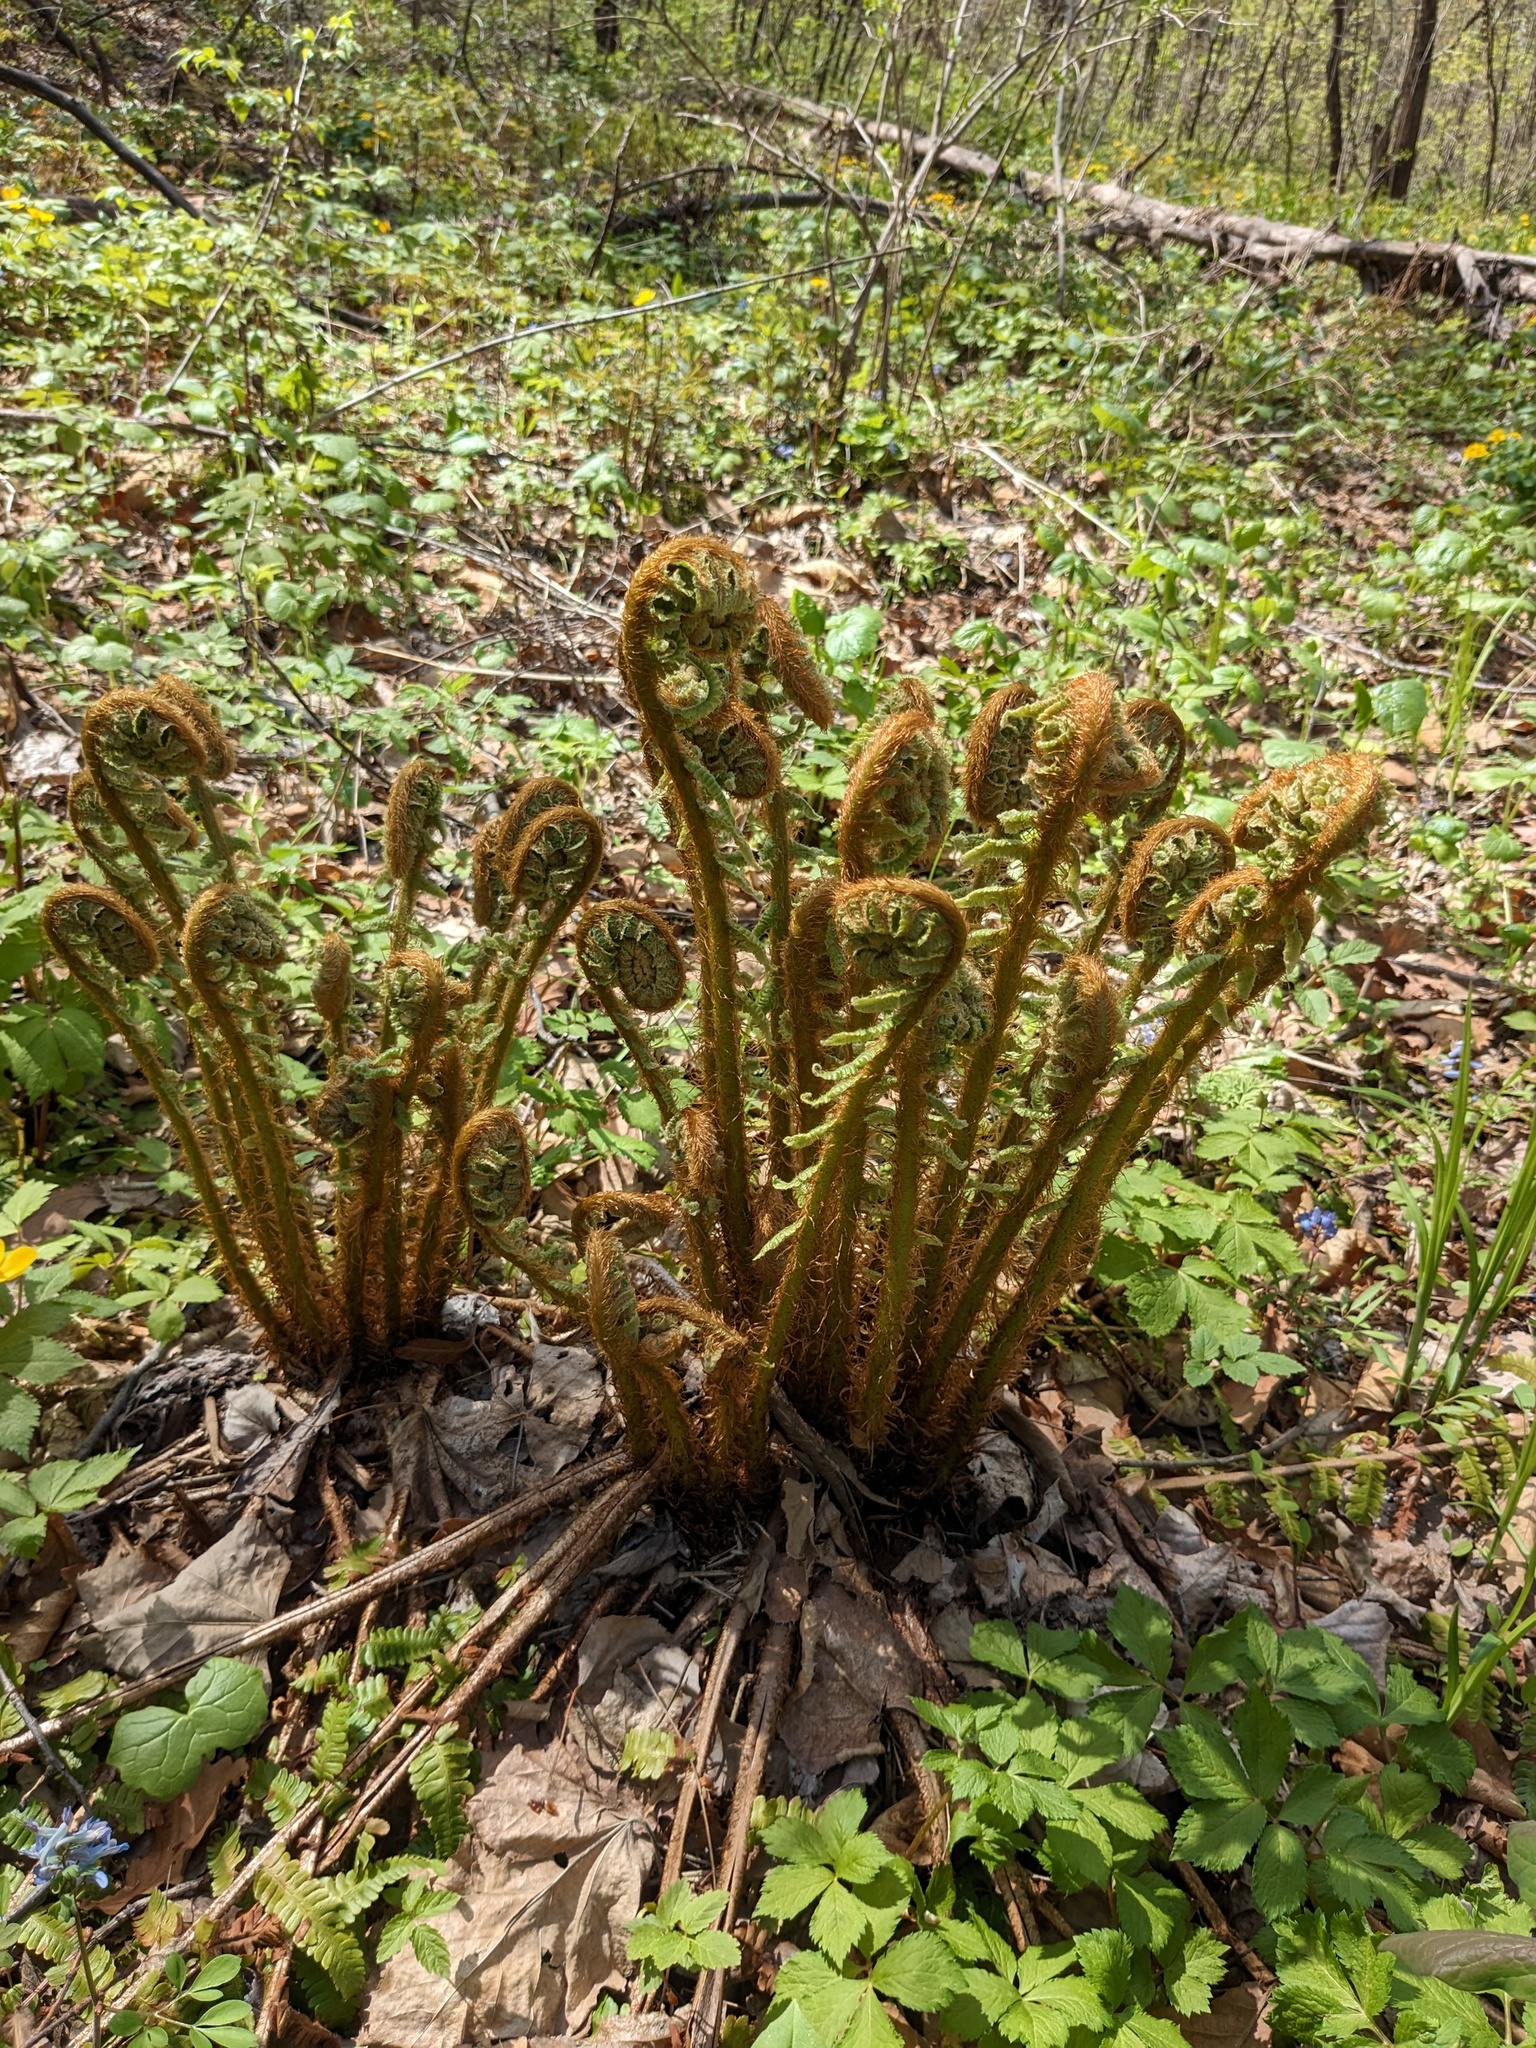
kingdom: Plantae
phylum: Tracheophyta
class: Polypodiopsida
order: Polypodiales
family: Dryopteridaceae
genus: Dryopteris
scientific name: Dryopteris crassirhizoma
